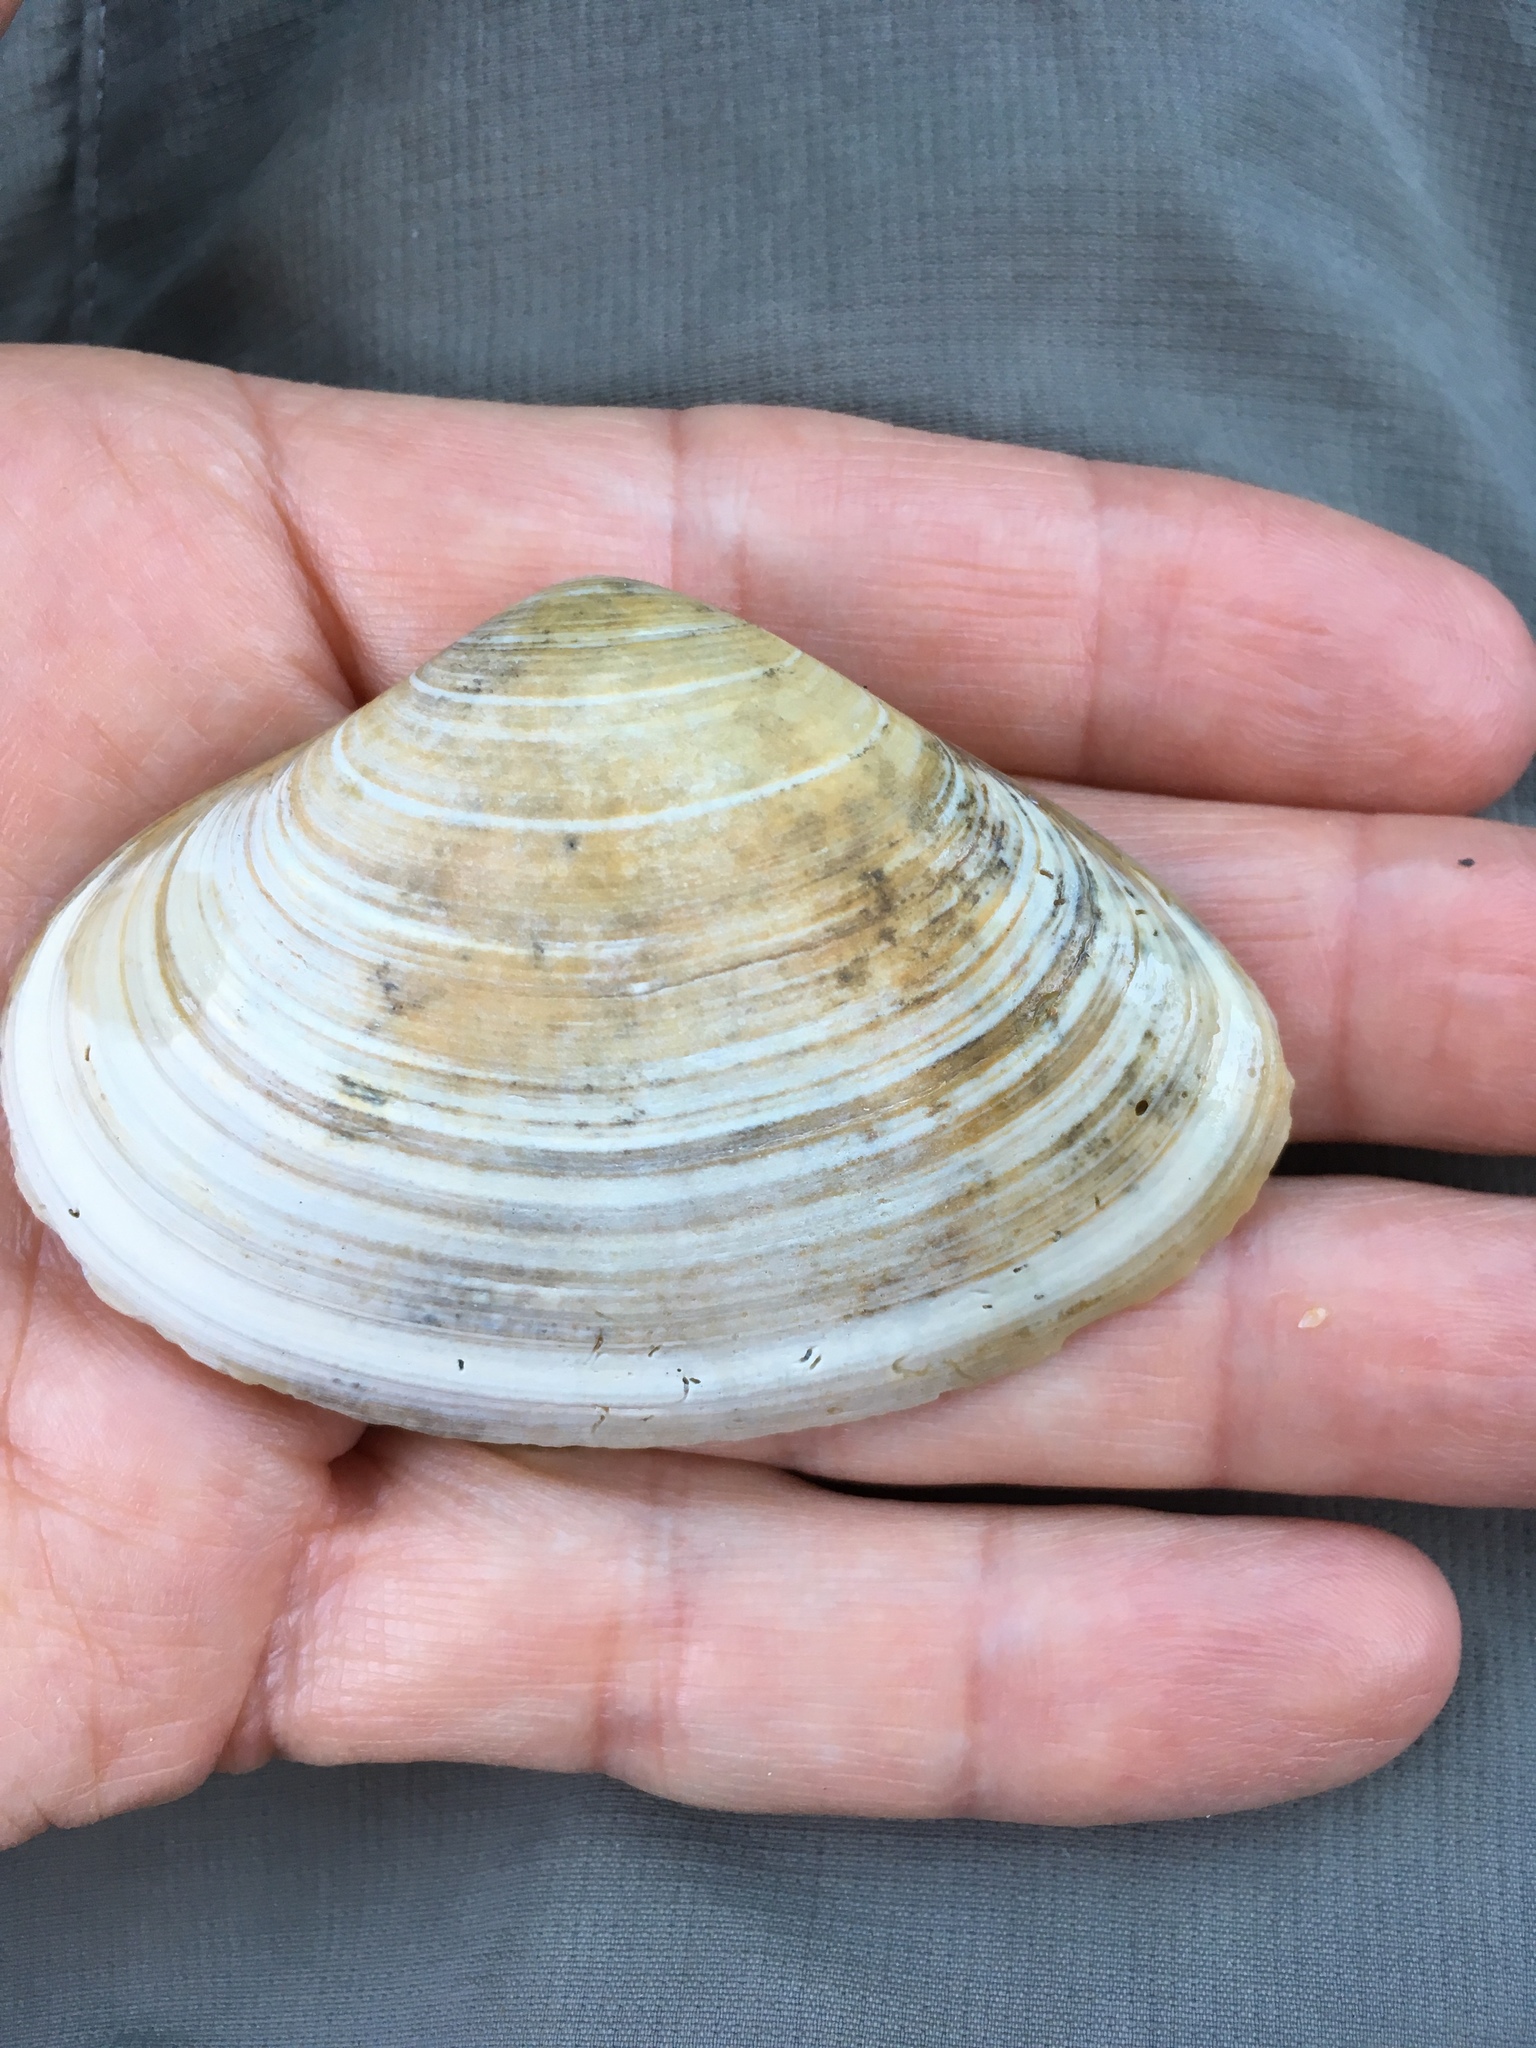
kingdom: Animalia
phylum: Mollusca
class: Bivalvia
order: Venerida
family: Mactridae
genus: Spisula
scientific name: Spisula raveneli
